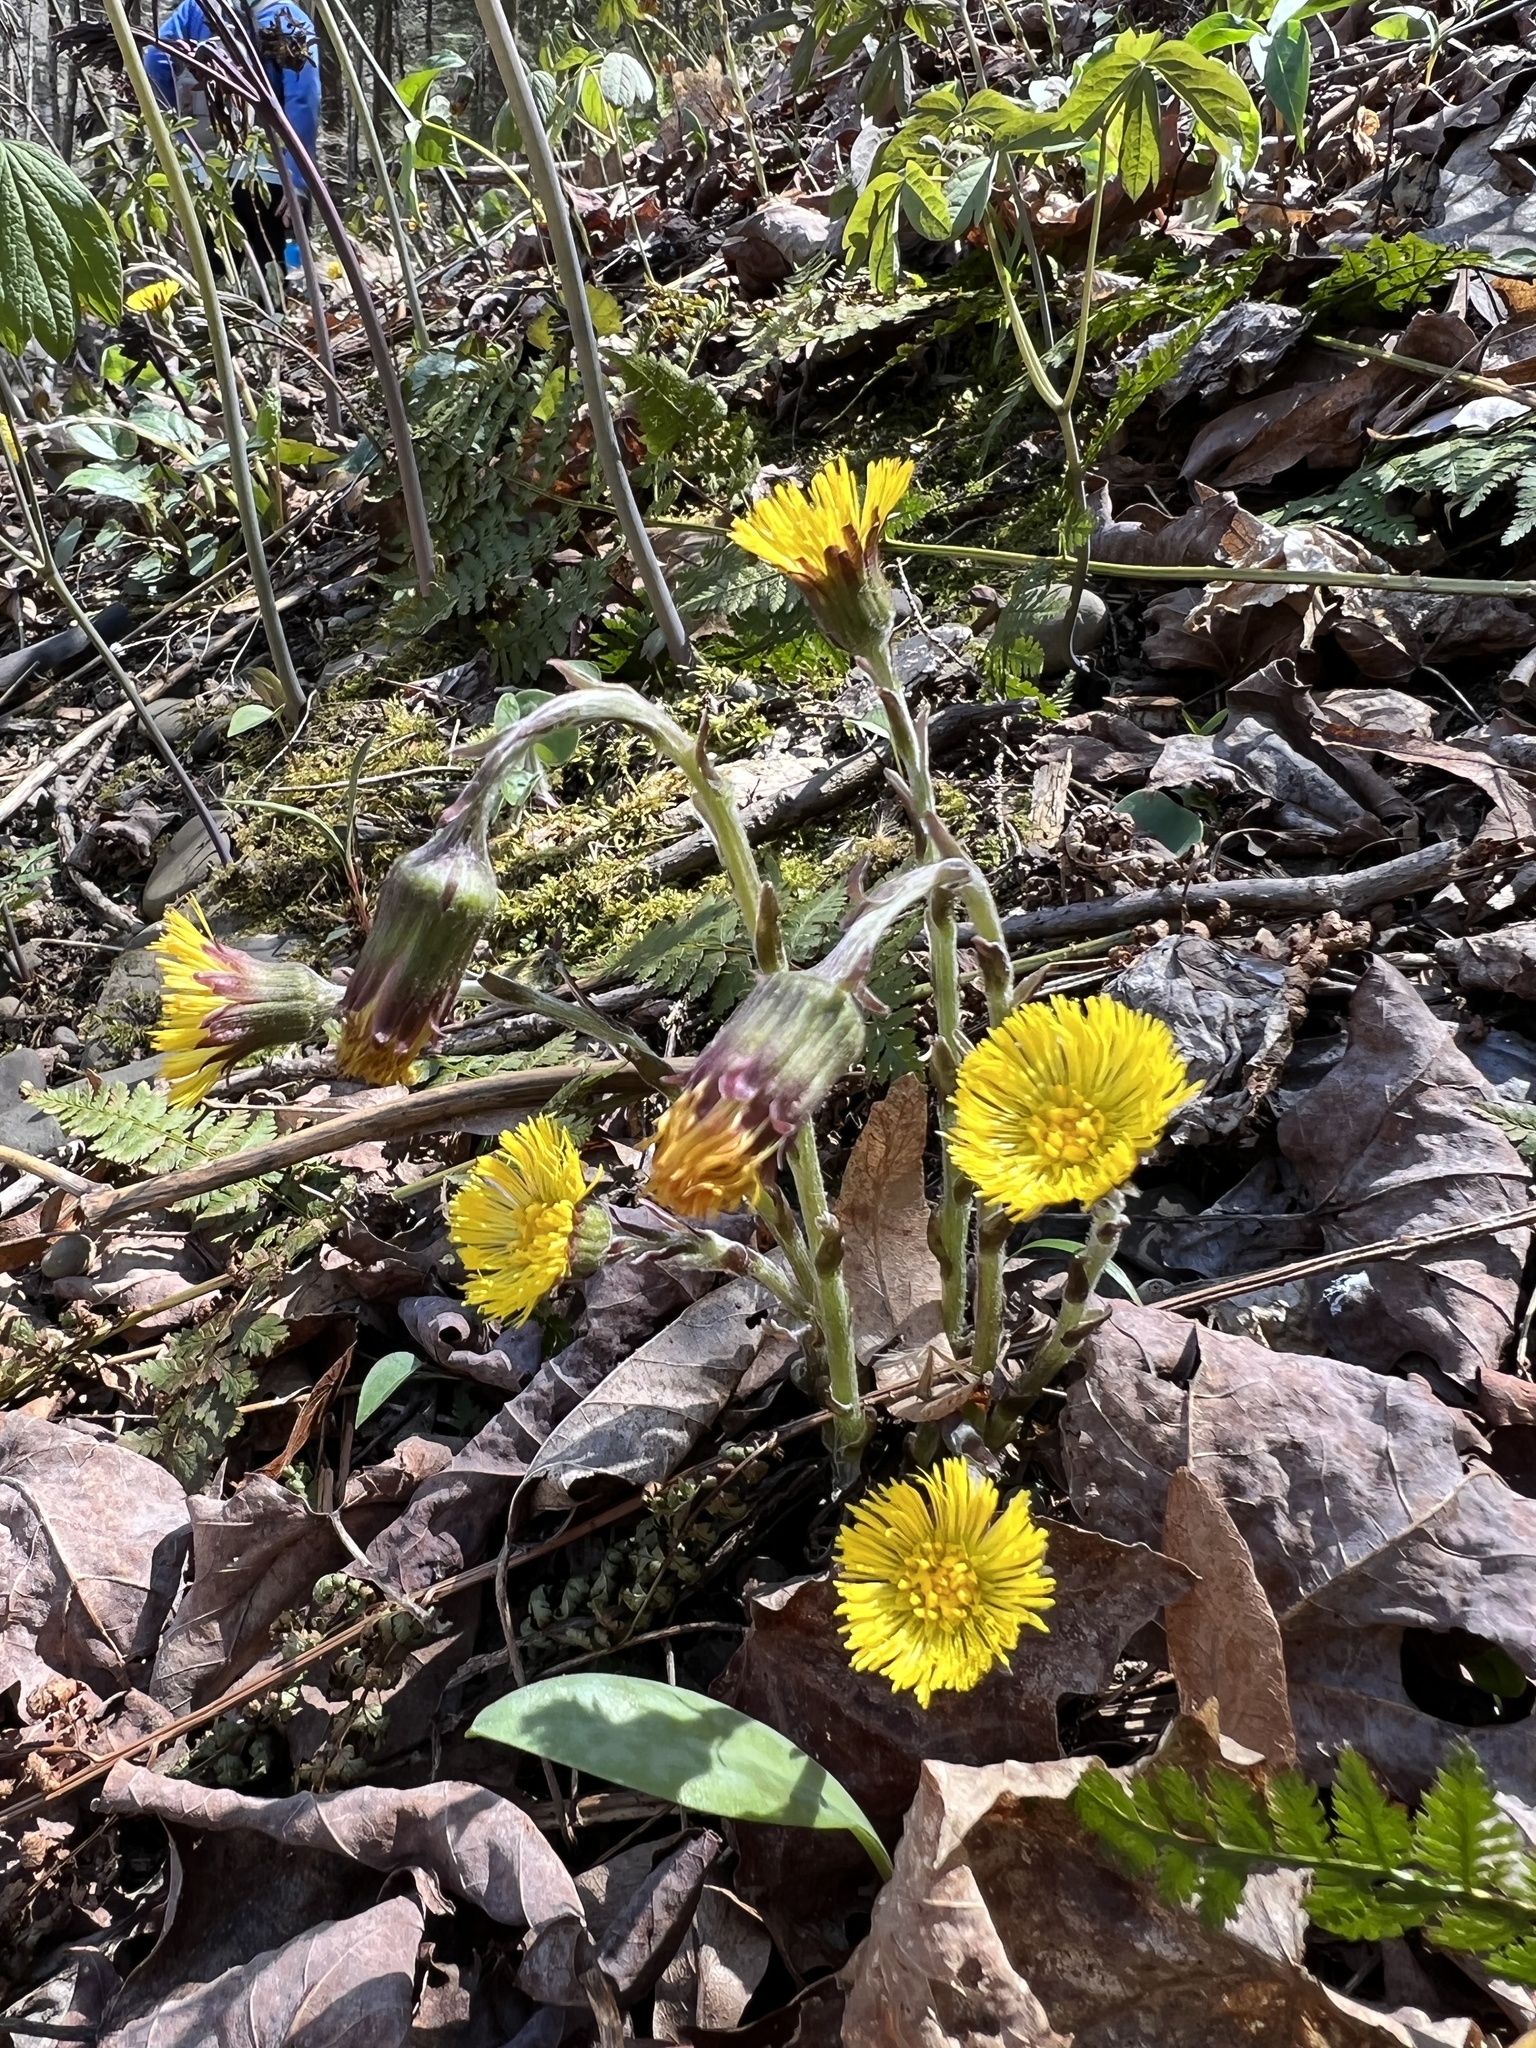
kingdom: Plantae
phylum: Tracheophyta
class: Magnoliopsida
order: Asterales
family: Asteraceae
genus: Tussilago
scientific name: Tussilago farfara
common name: Coltsfoot
